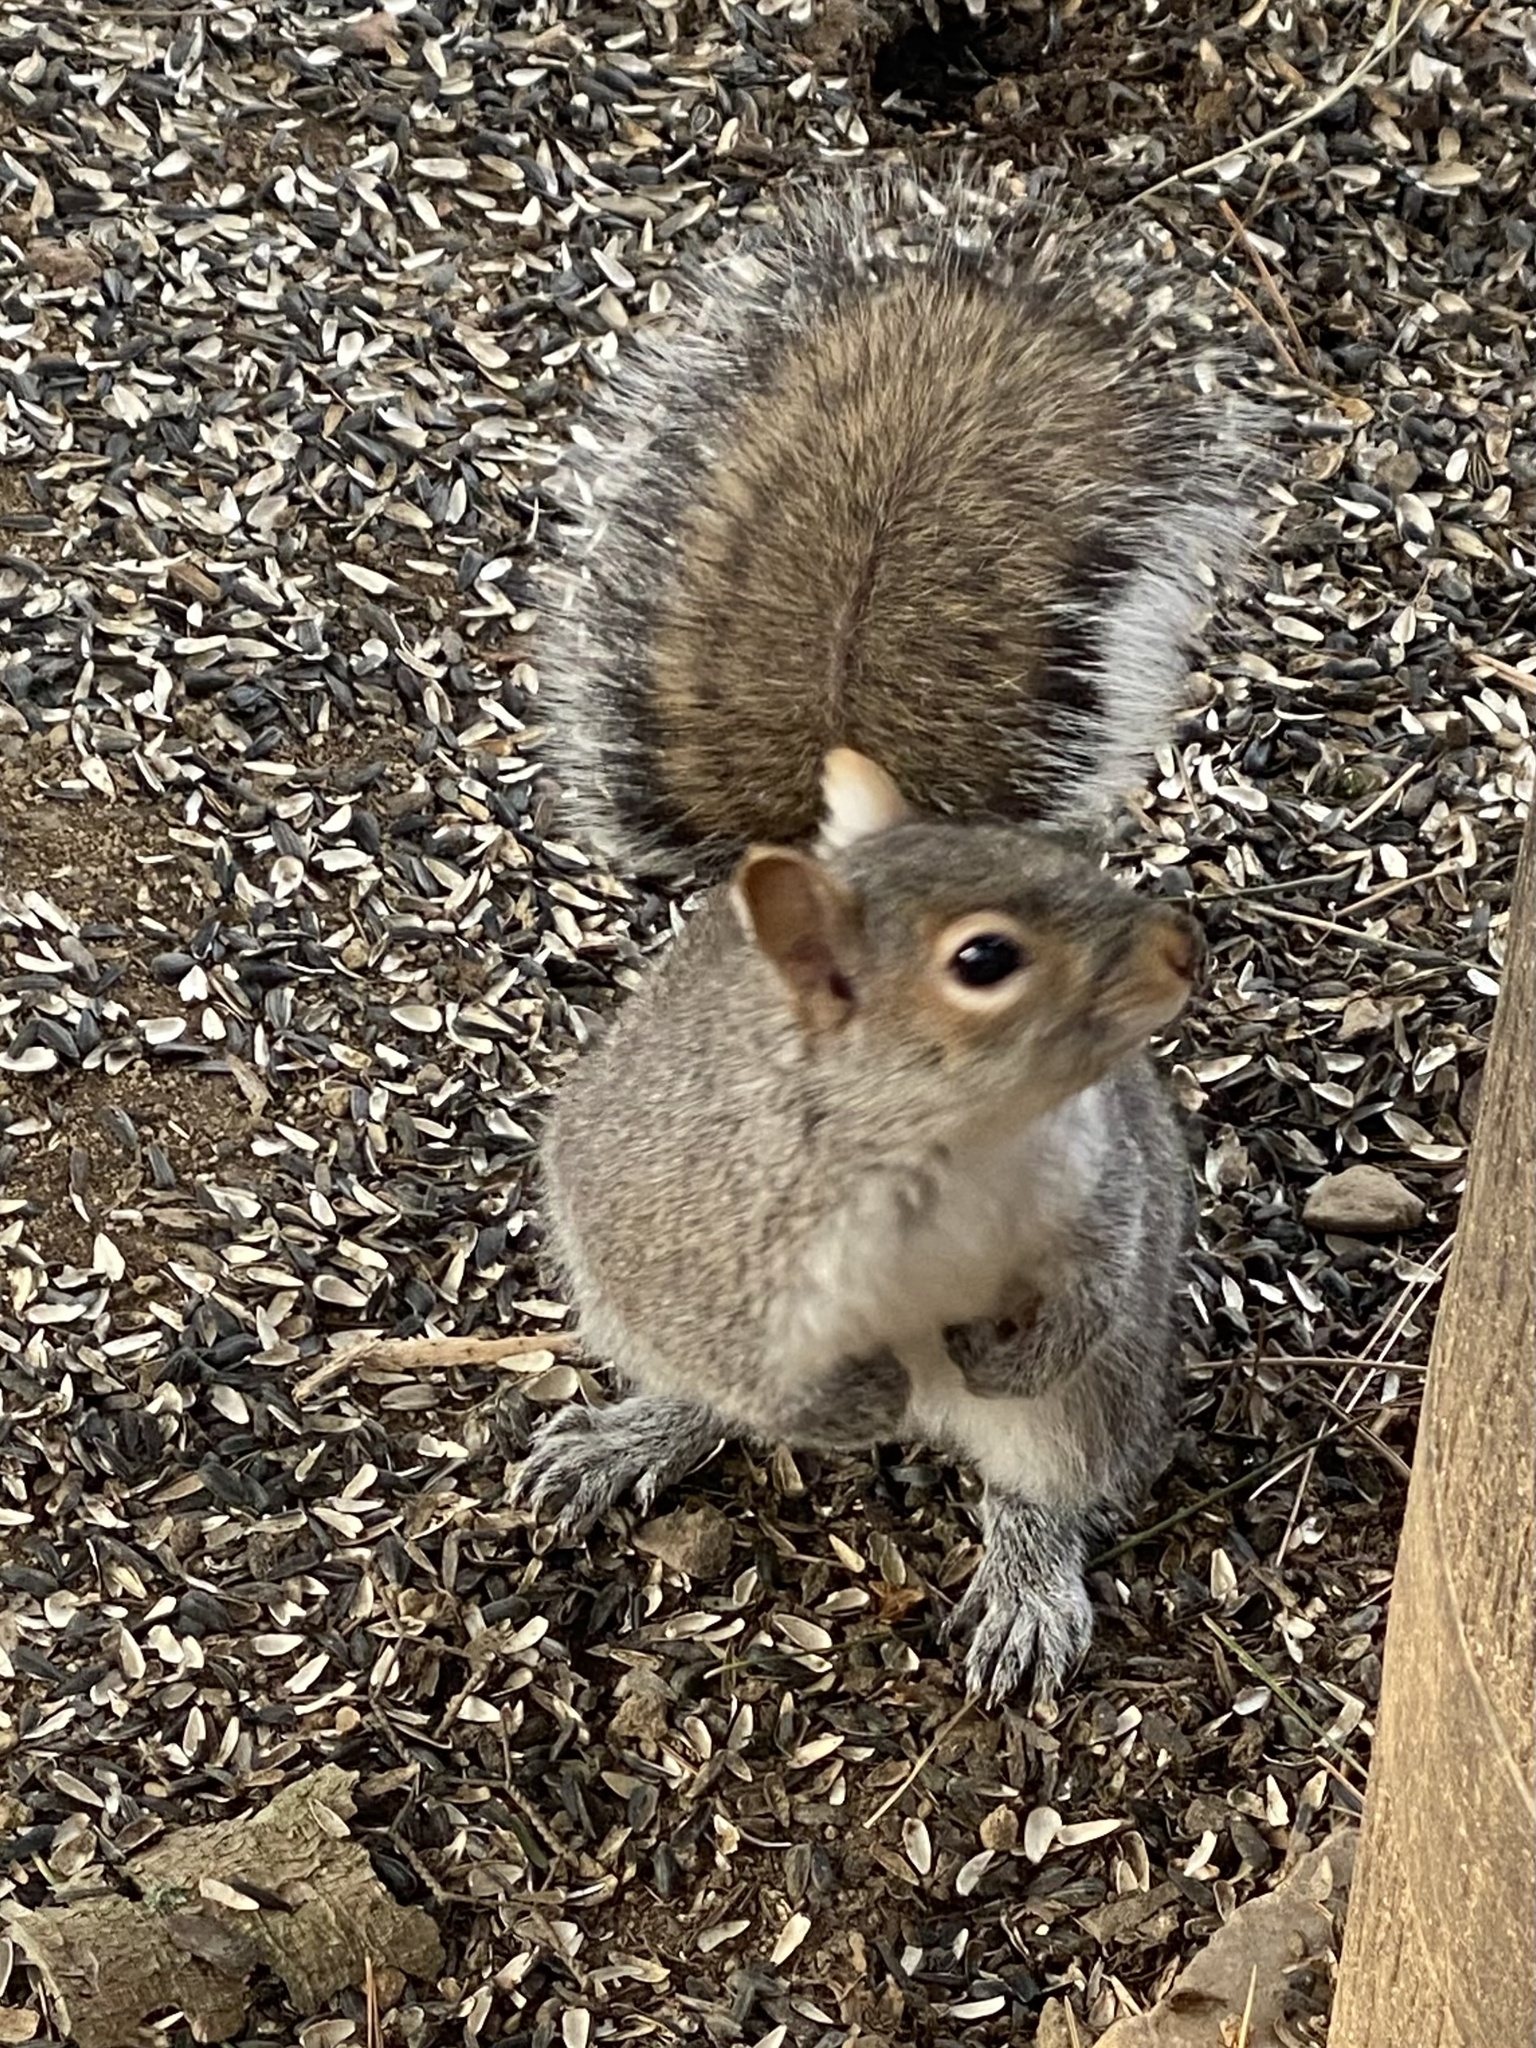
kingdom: Animalia
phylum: Chordata
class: Mammalia
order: Rodentia
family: Sciuridae
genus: Sciurus
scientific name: Sciurus carolinensis
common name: Eastern gray squirrel
